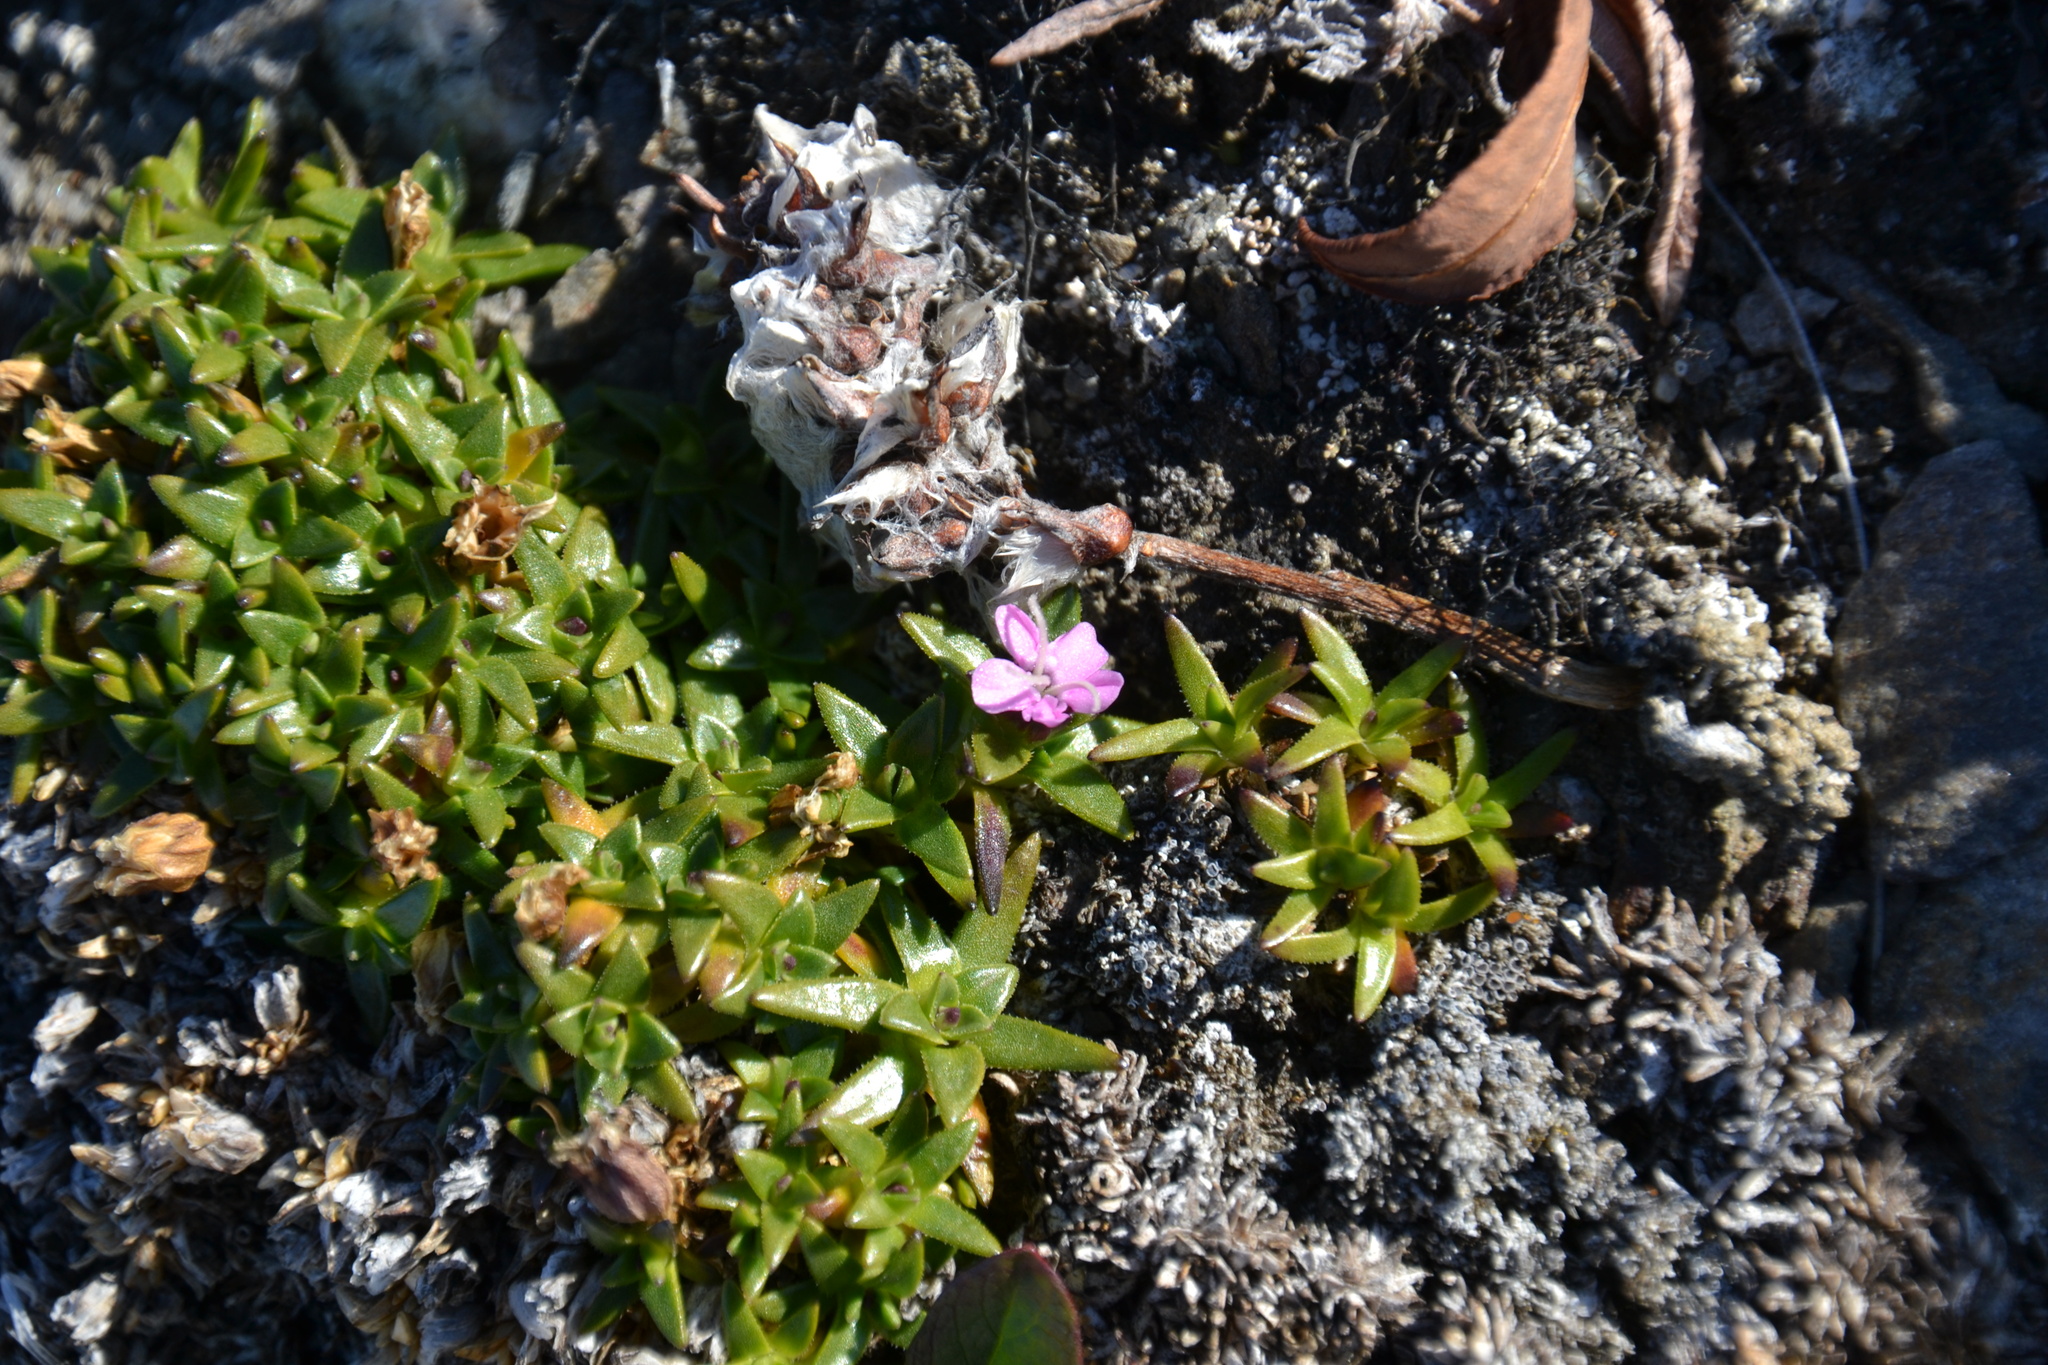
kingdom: Plantae
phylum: Tracheophyta
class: Magnoliopsida
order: Caryophyllales
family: Caryophyllaceae
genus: Silene
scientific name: Silene acaulis
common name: Moss campion
